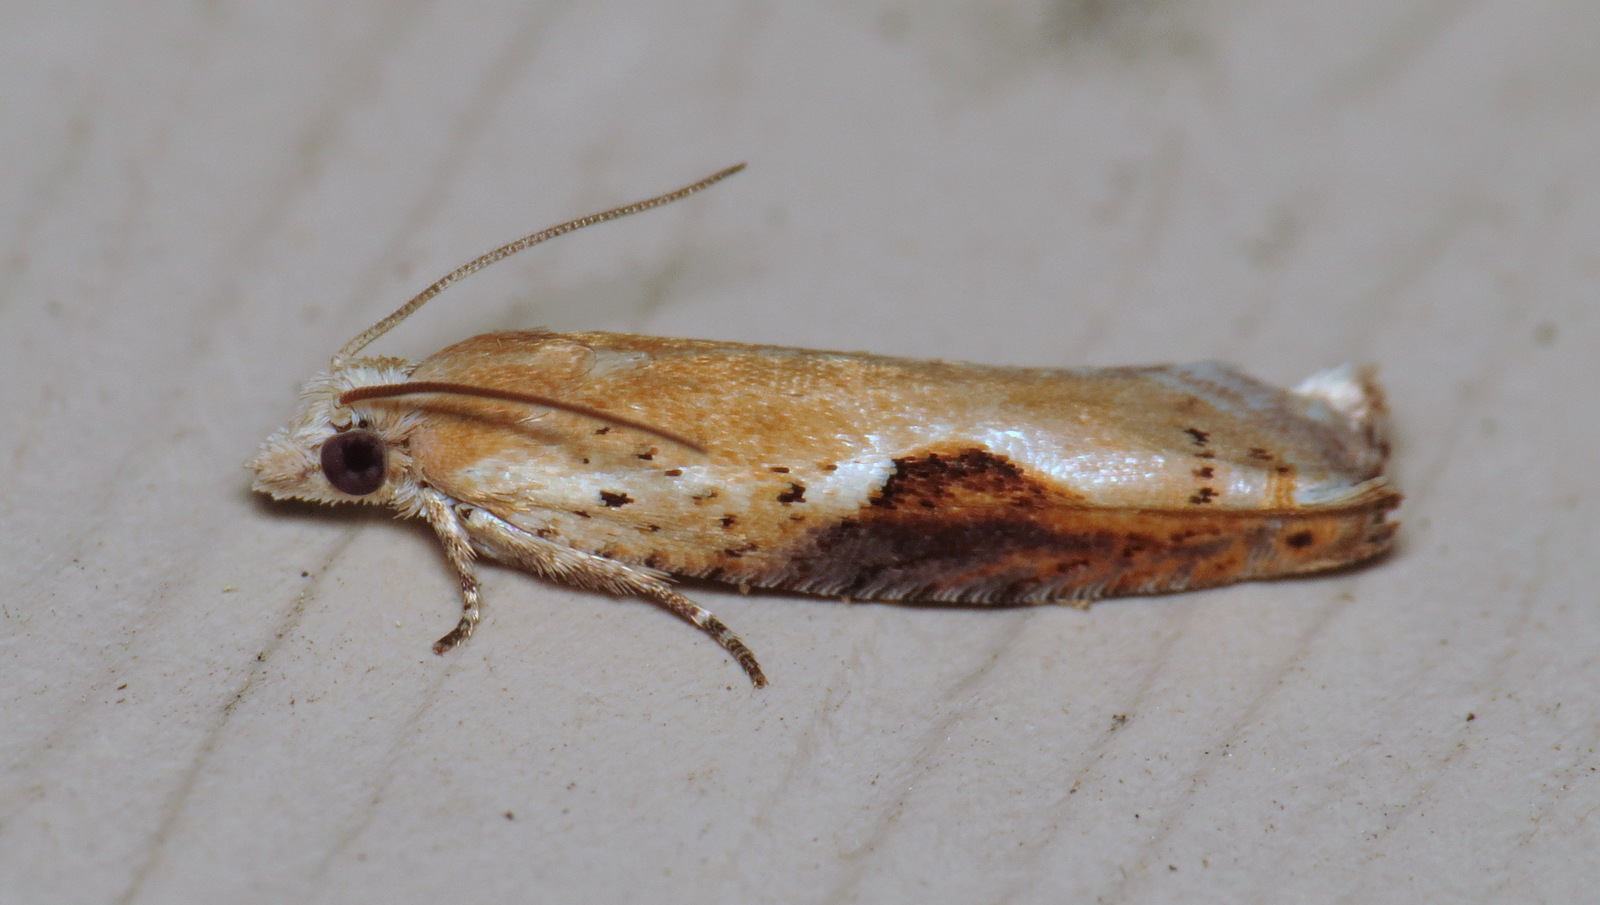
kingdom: Animalia
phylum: Arthropoda
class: Insecta
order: Lepidoptera
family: Tortricidae
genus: Pseudexentera
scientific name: Pseudexentera costomaculana
